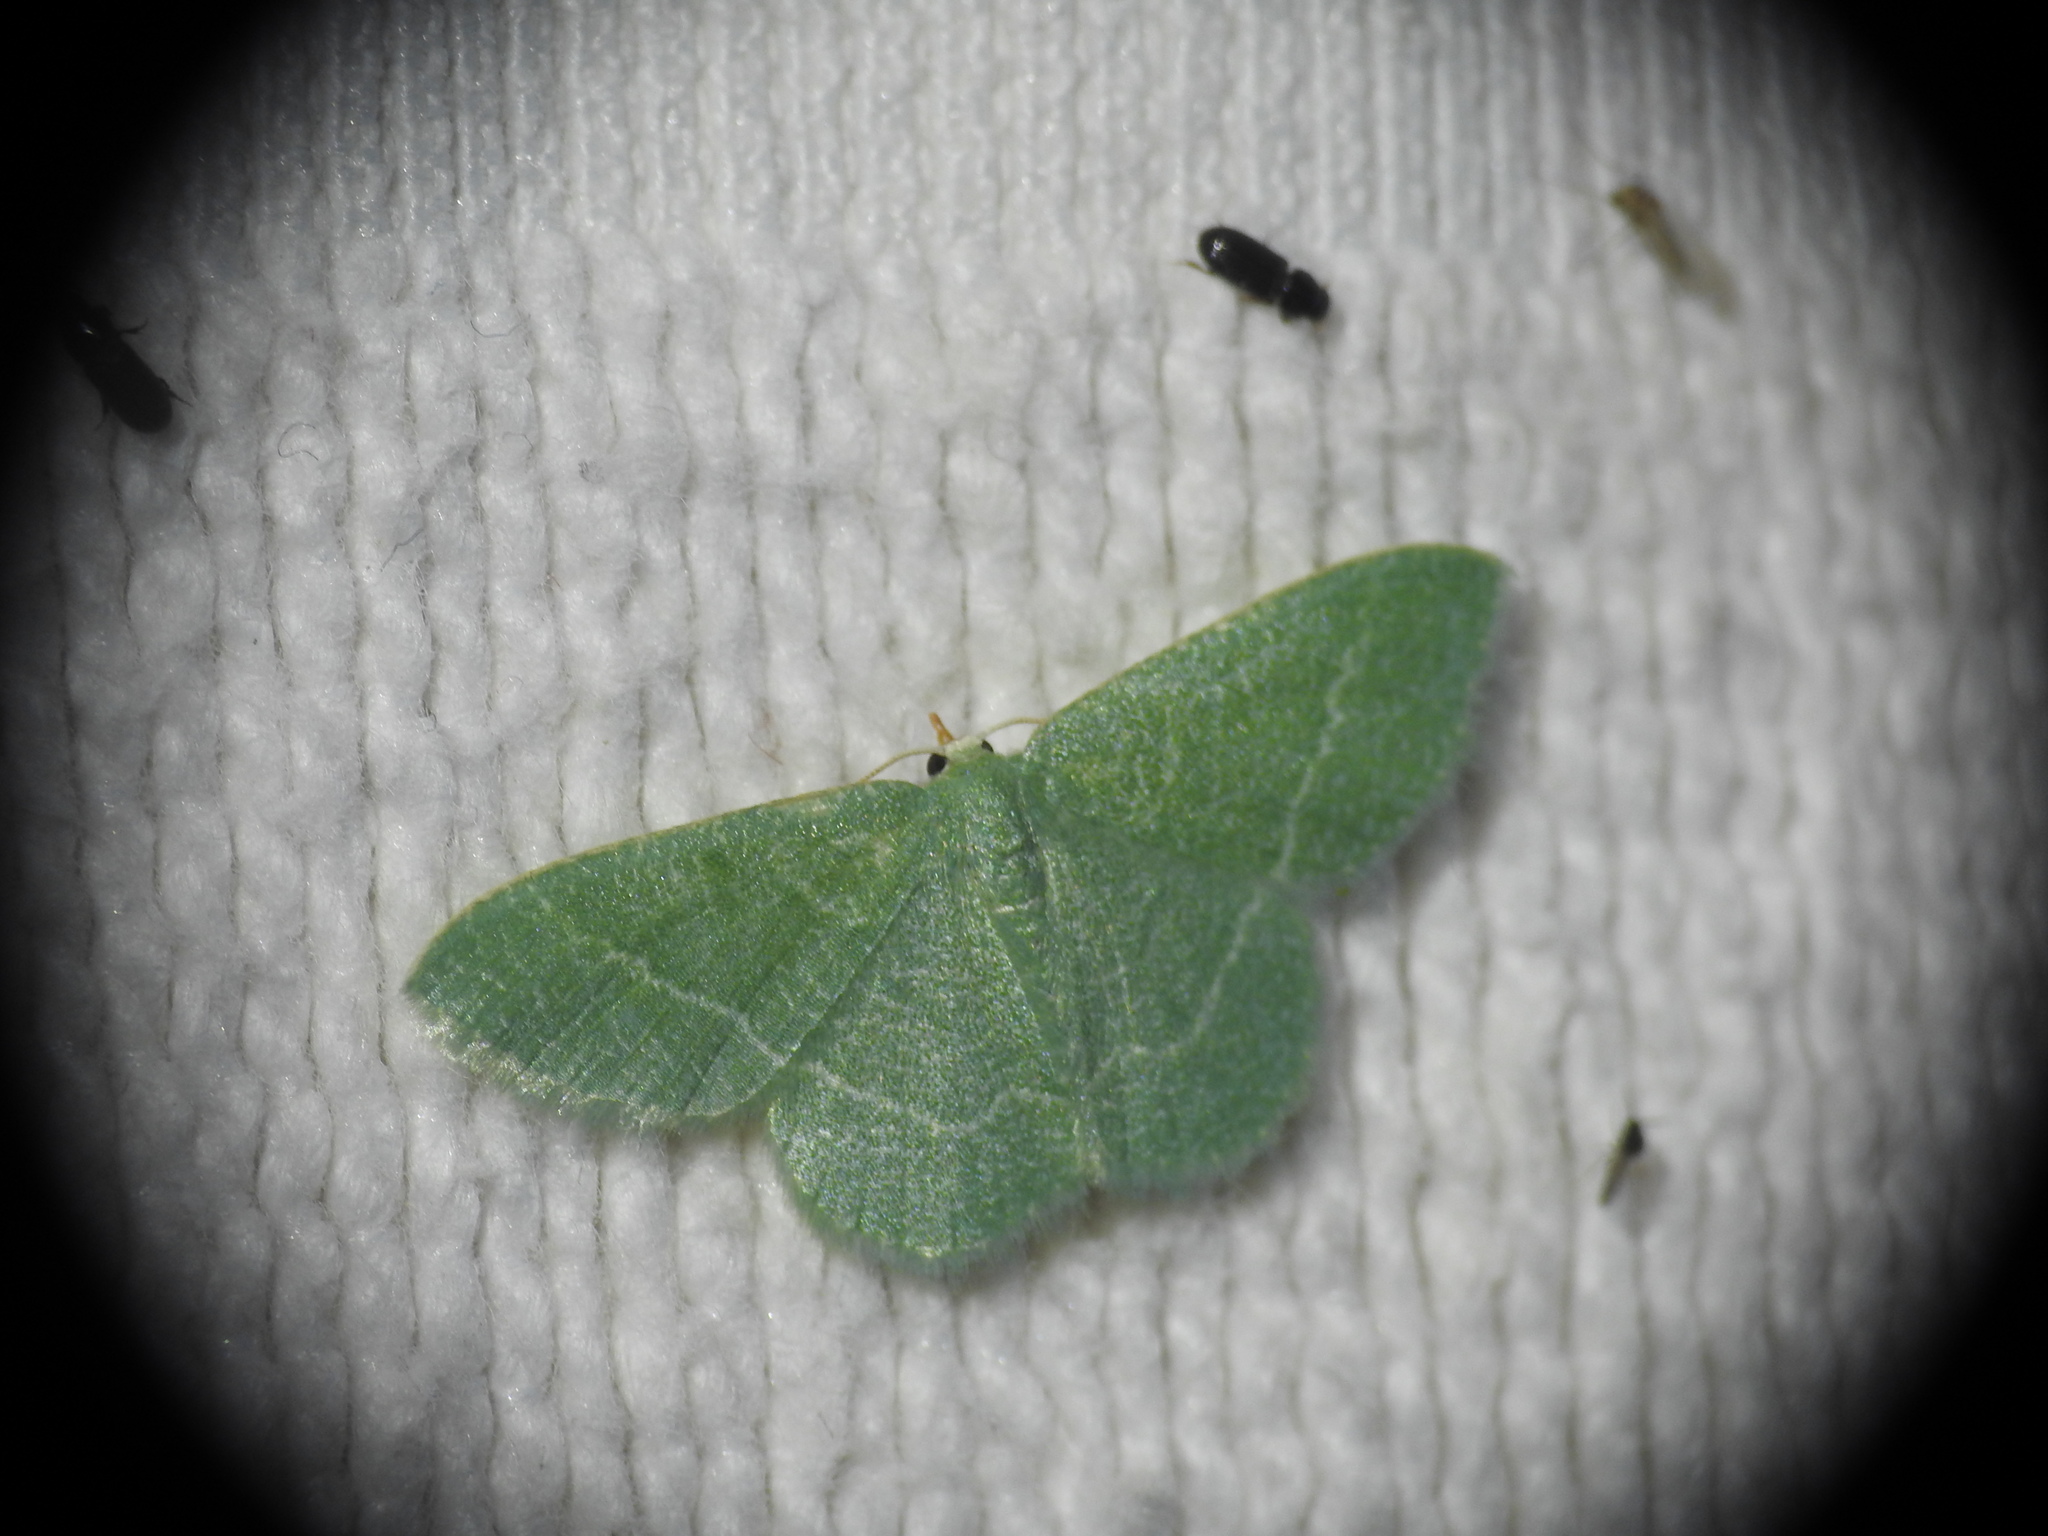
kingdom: Animalia
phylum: Arthropoda
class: Insecta
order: Lepidoptera
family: Geometridae
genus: Chlorissa
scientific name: Chlorissa etruscaria
